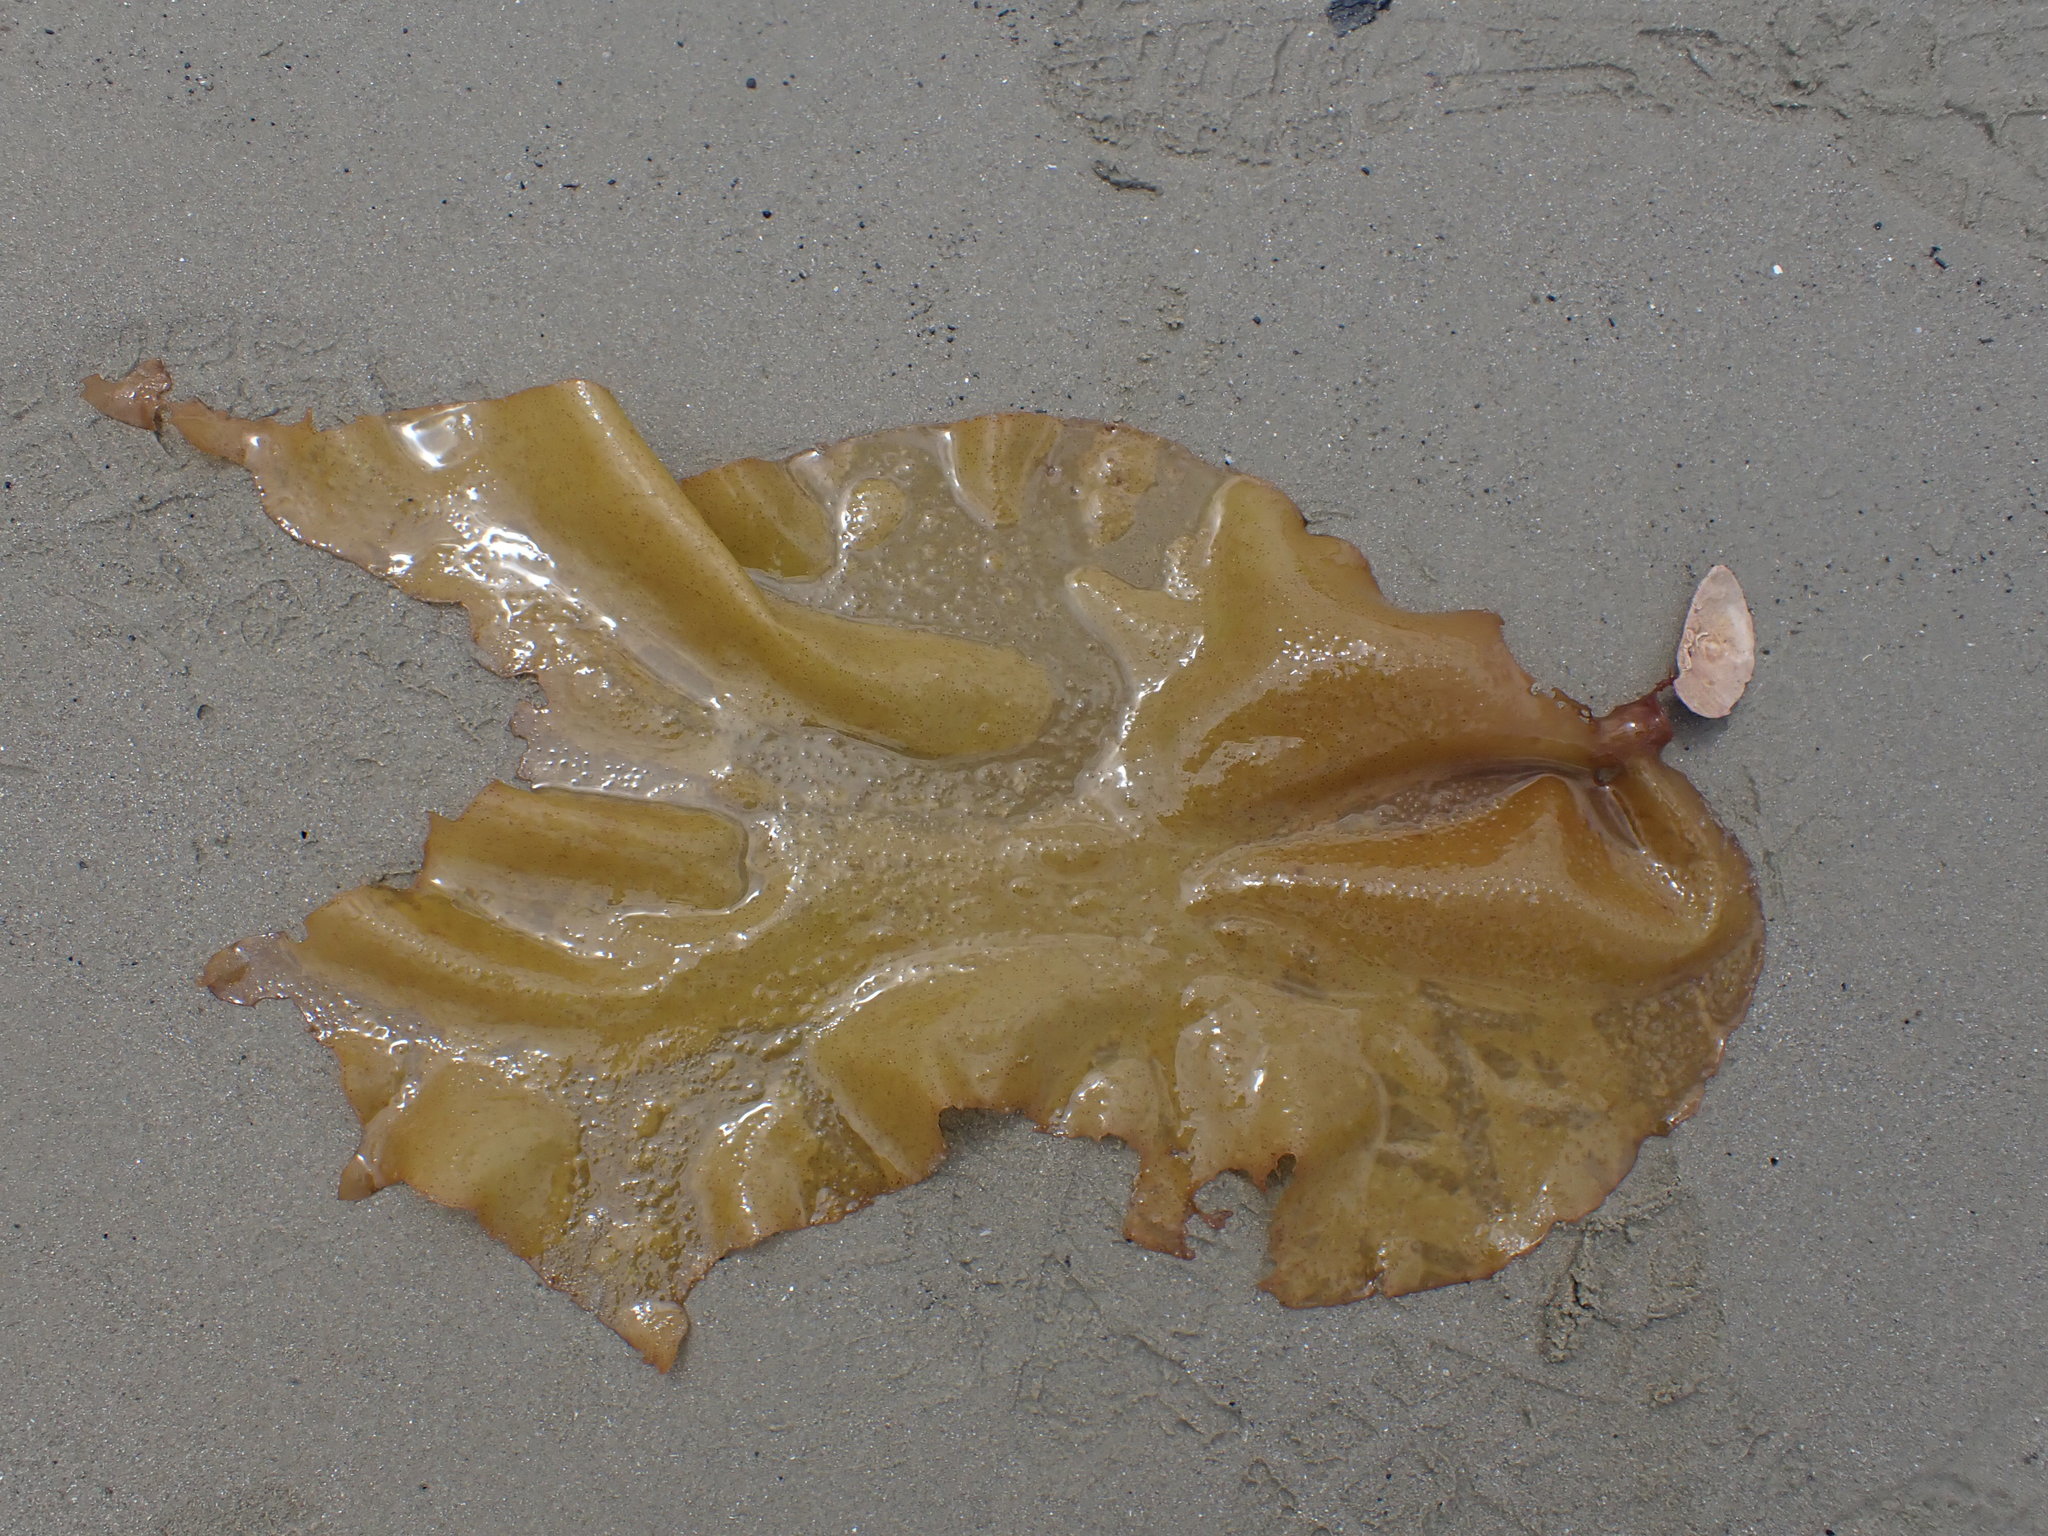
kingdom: Plantae
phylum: Rhodophyta
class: Florideophyceae
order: Halymeniales
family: Halymeniaceae
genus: Aeodes
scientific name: Aeodes nitidissima
